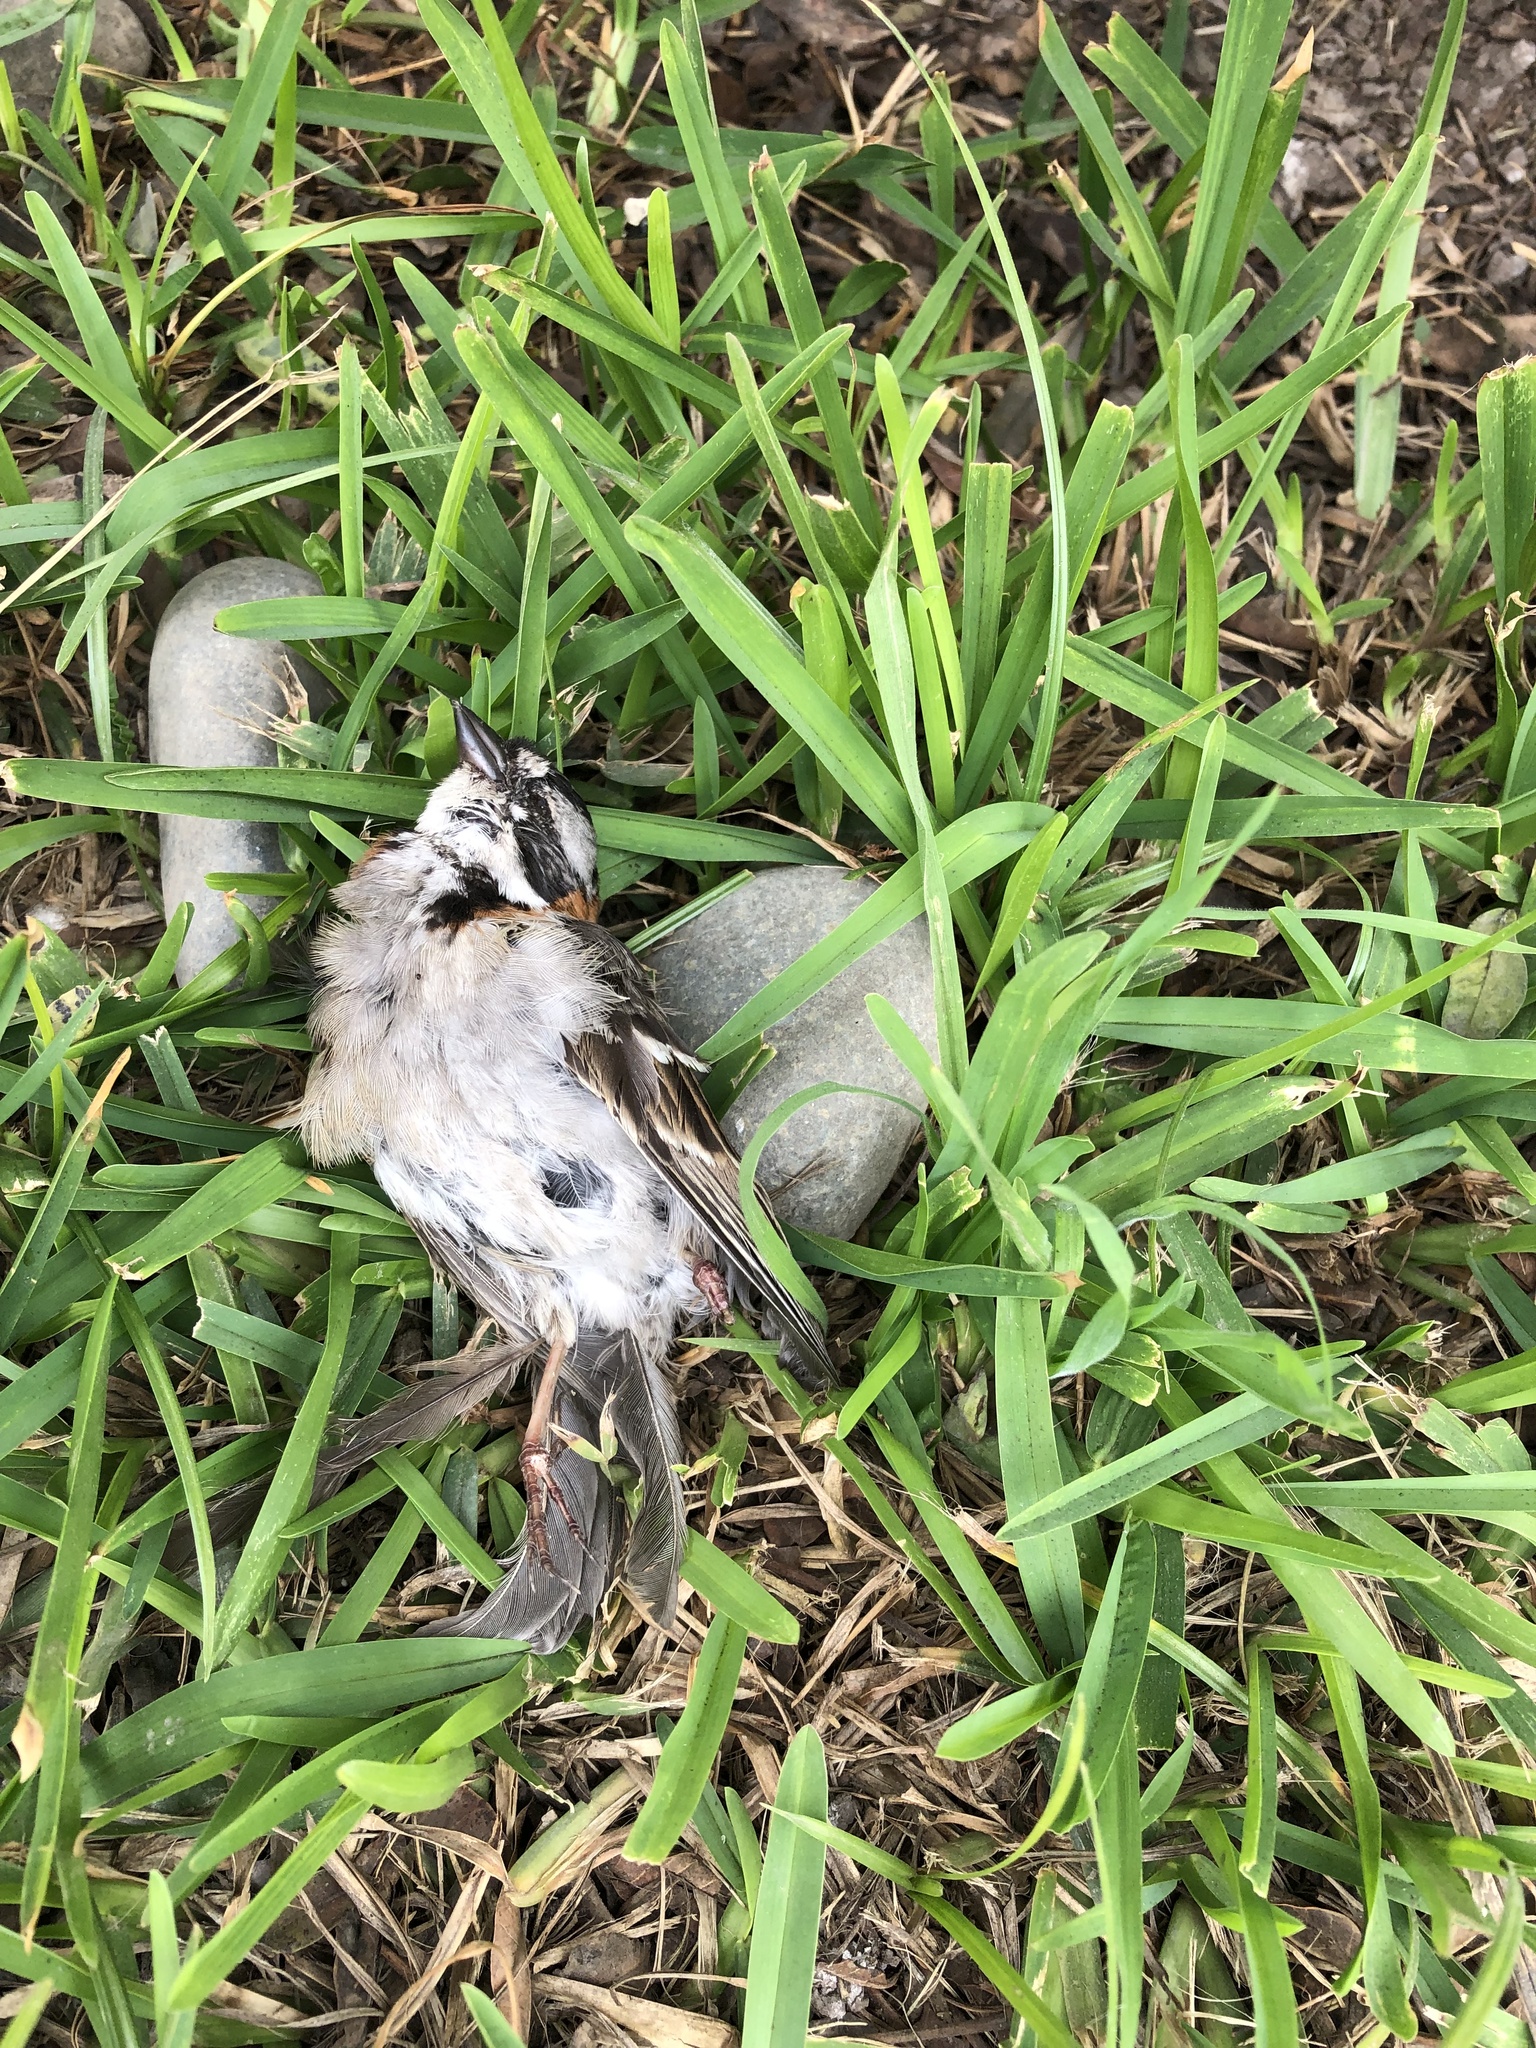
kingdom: Animalia
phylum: Chordata
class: Aves
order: Passeriformes
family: Passerellidae
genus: Zonotrichia
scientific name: Zonotrichia capensis
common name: Rufous-collared sparrow
